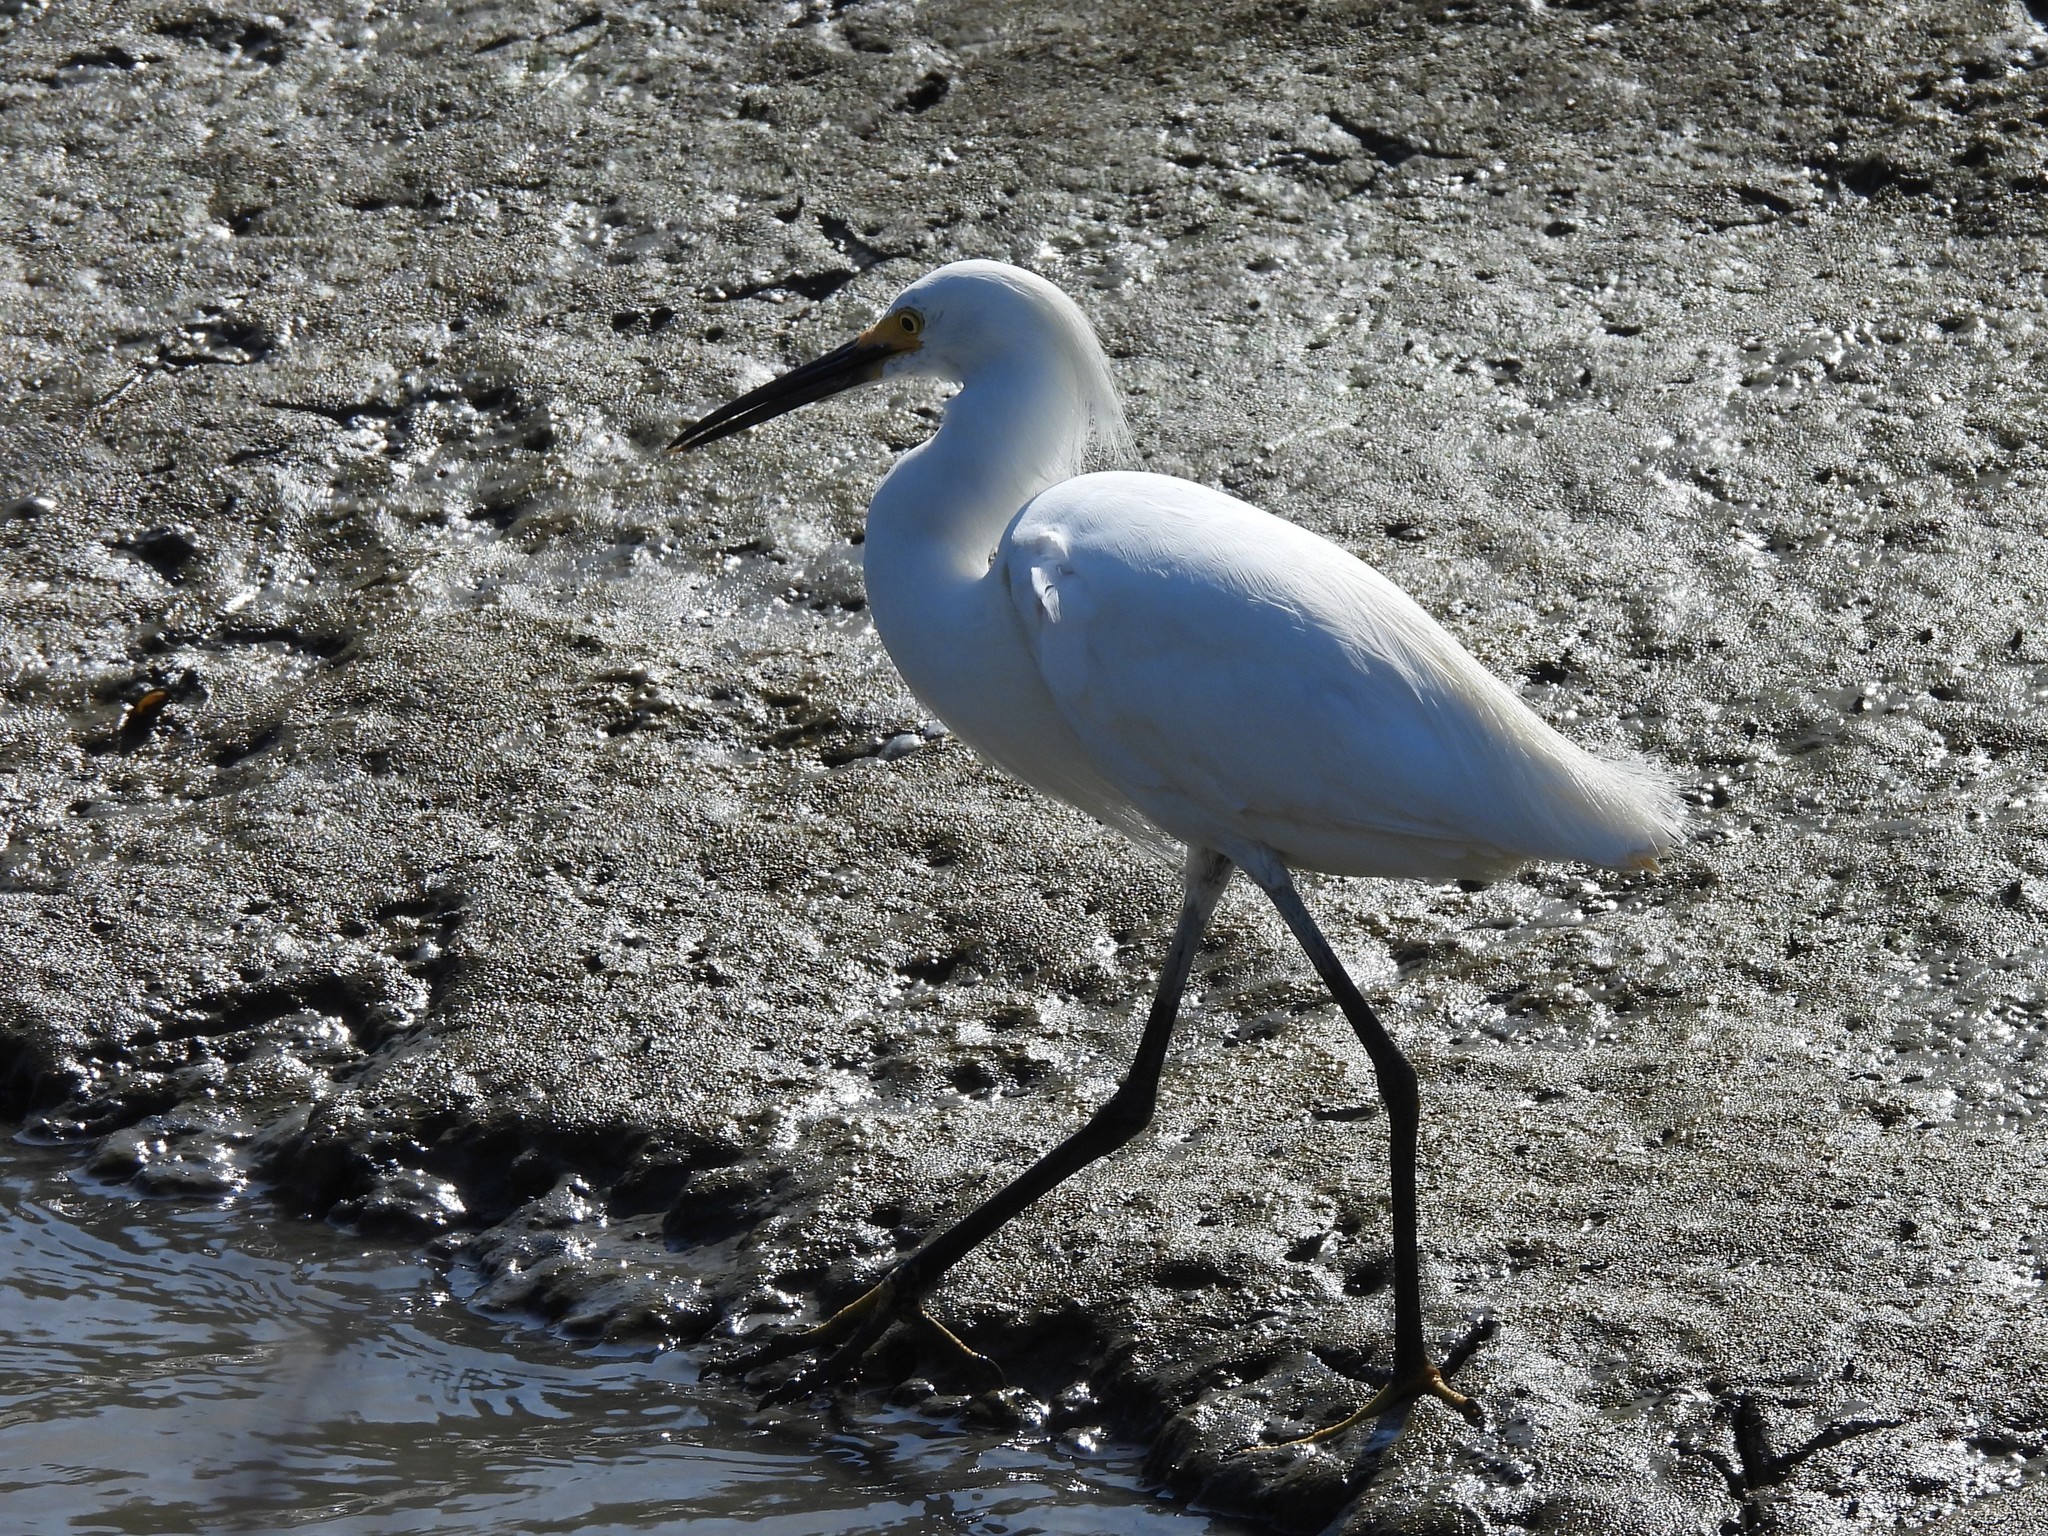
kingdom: Animalia
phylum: Chordata
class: Aves
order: Pelecaniformes
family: Ardeidae
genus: Egretta
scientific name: Egretta thula
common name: Snowy egret
